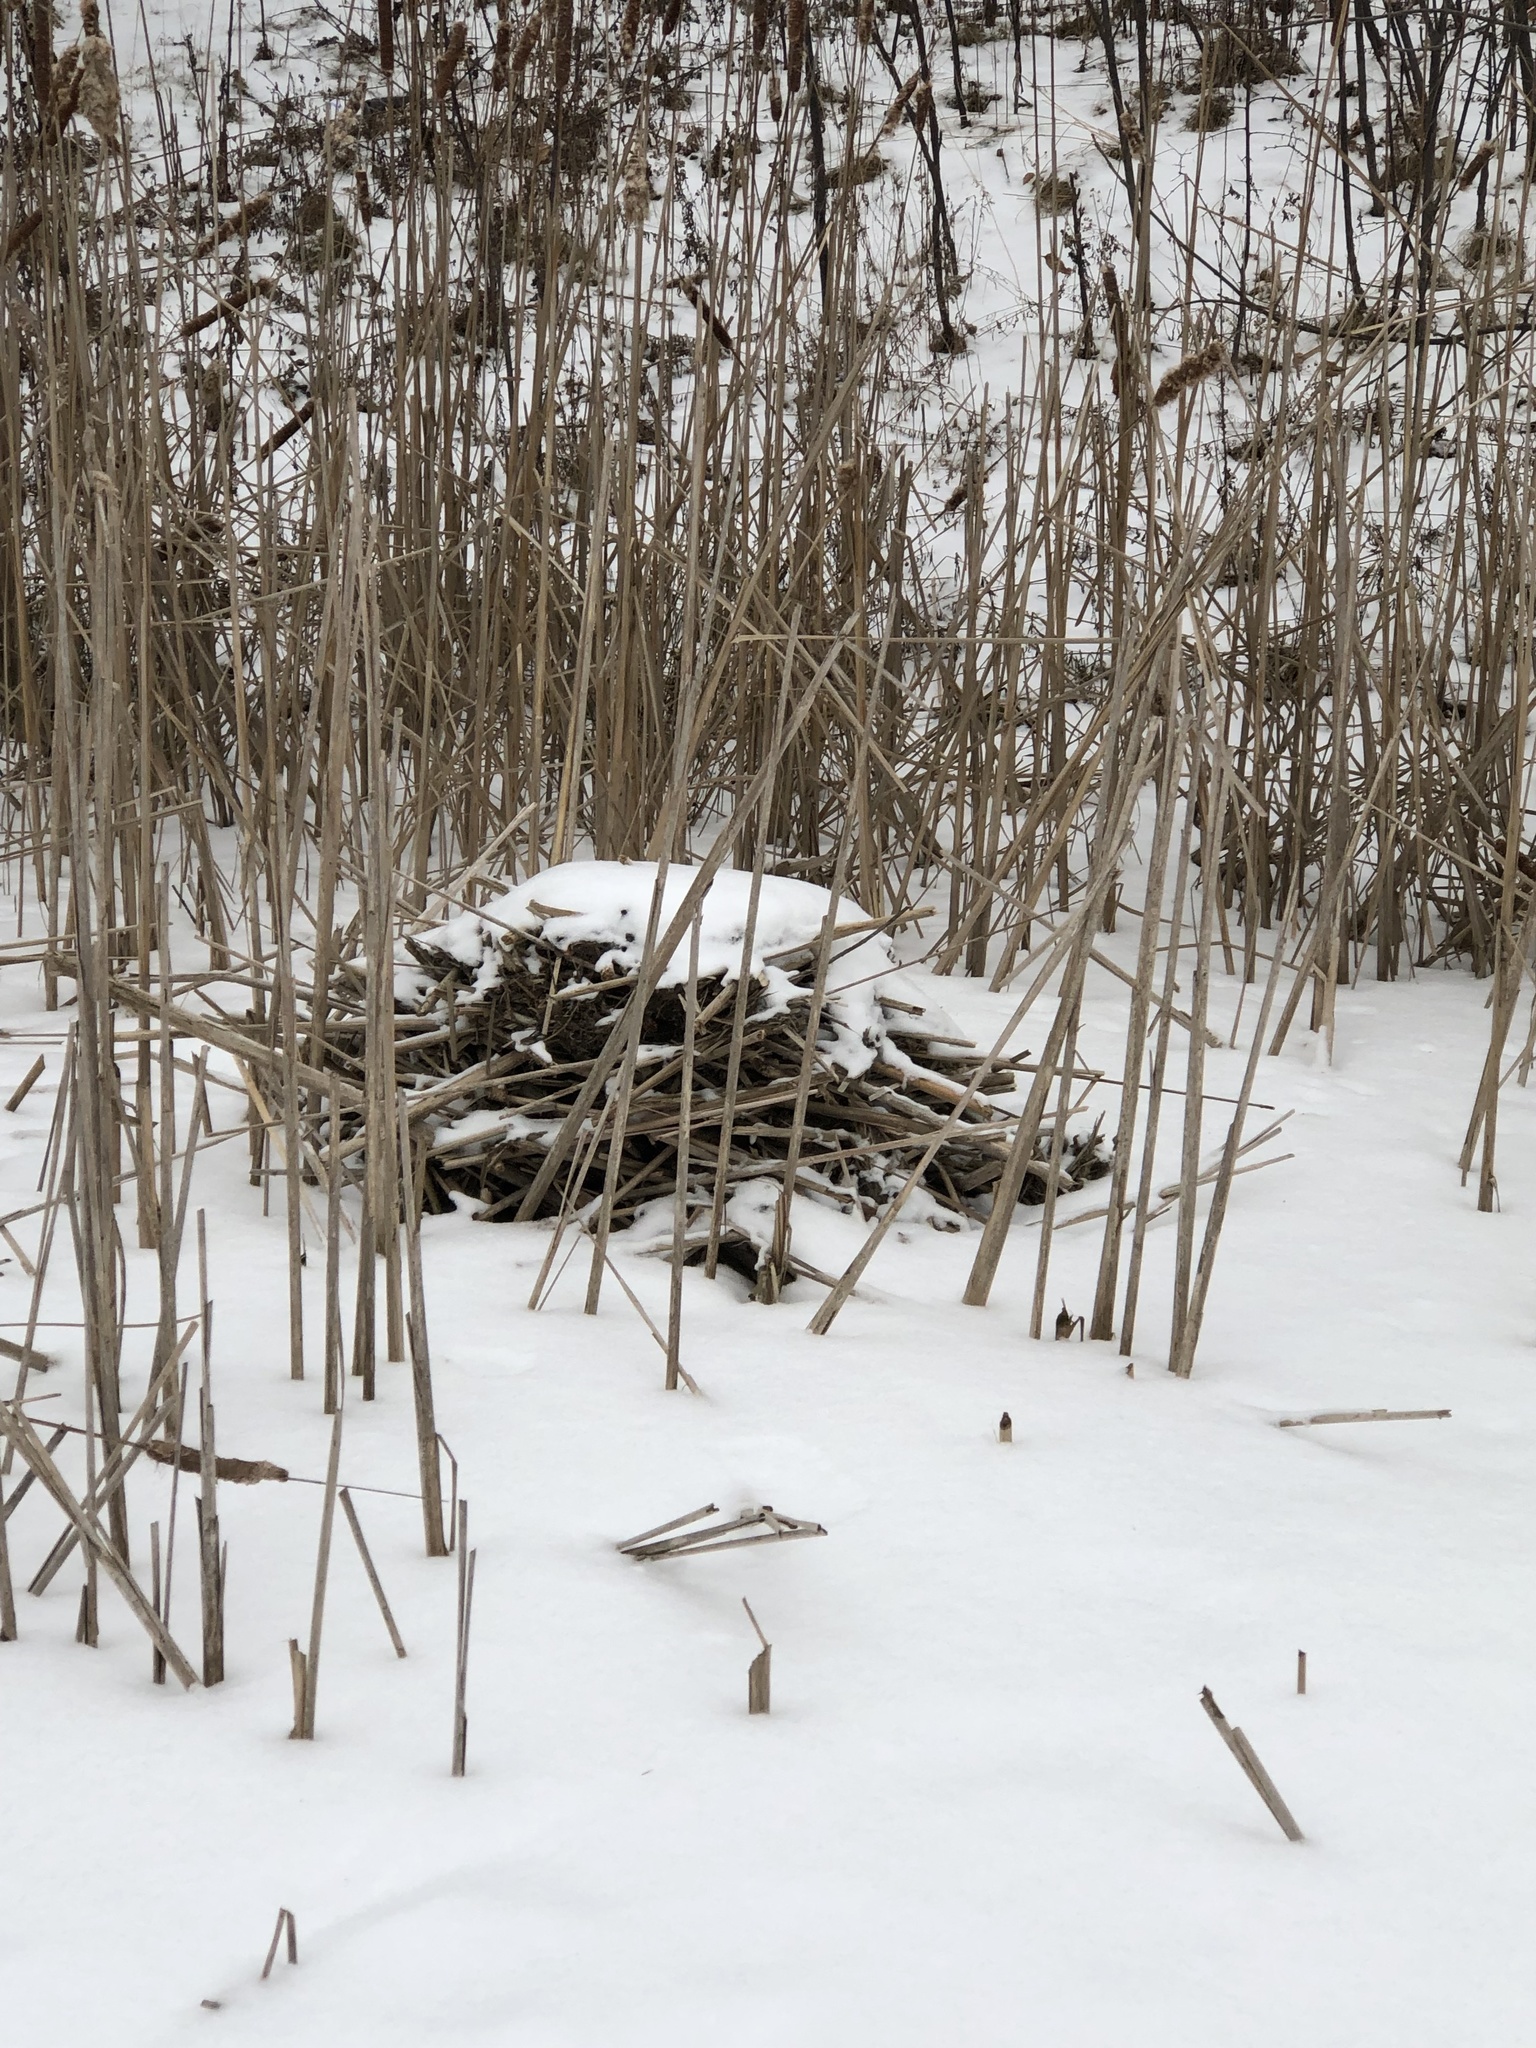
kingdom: Animalia
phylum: Chordata
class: Mammalia
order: Rodentia
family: Cricetidae
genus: Ondatra
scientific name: Ondatra zibethicus
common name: Muskrat
